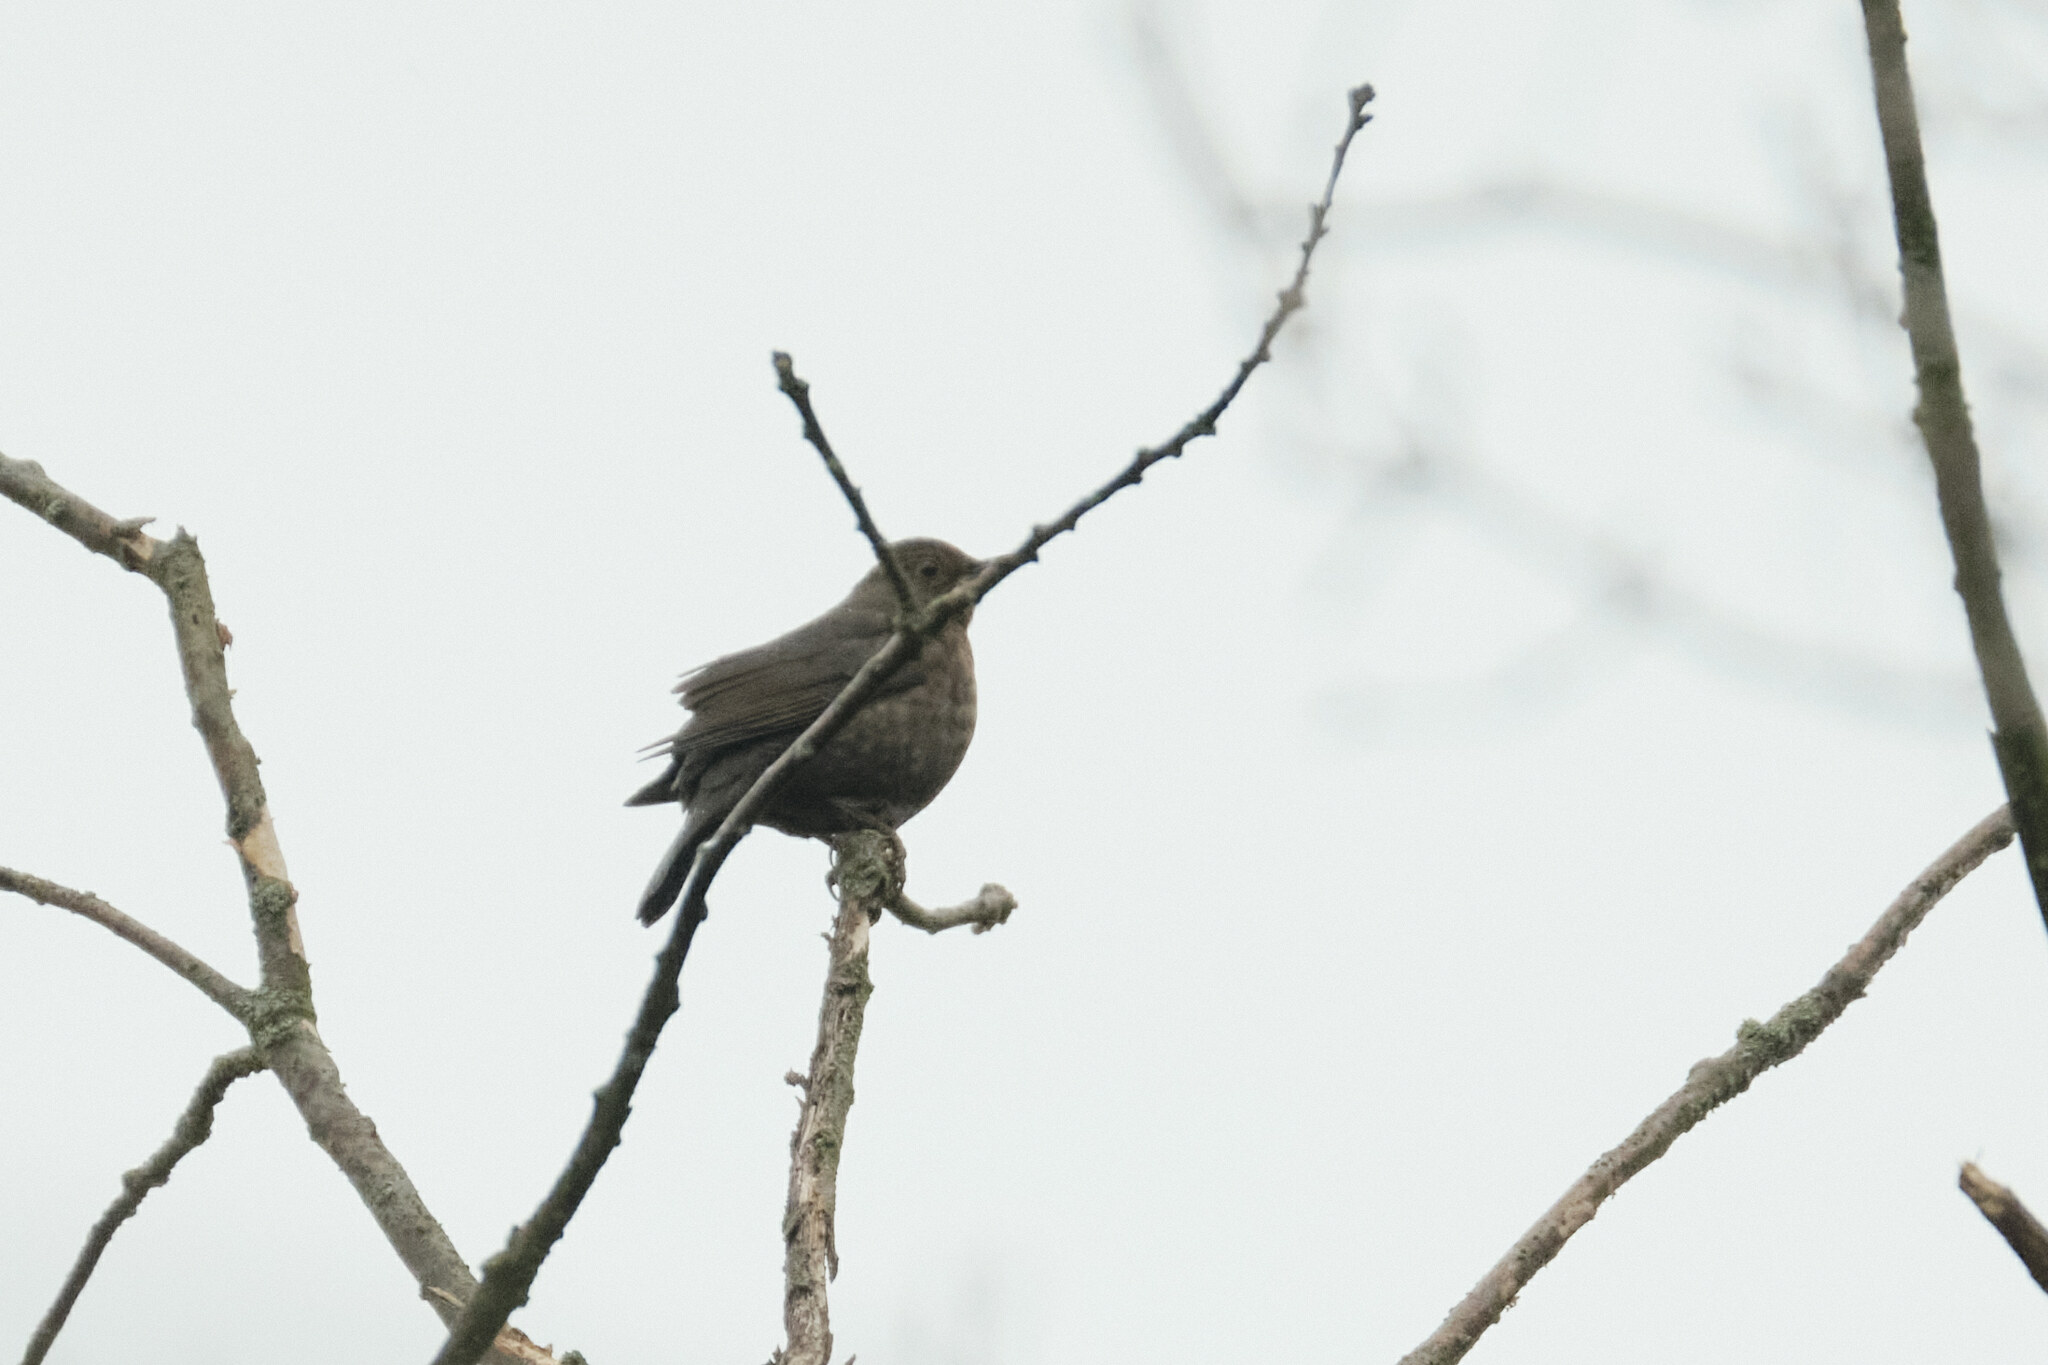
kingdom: Animalia
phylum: Chordata
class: Aves
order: Passeriformes
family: Turdidae
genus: Turdus
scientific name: Turdus merula
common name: Common blackbird
